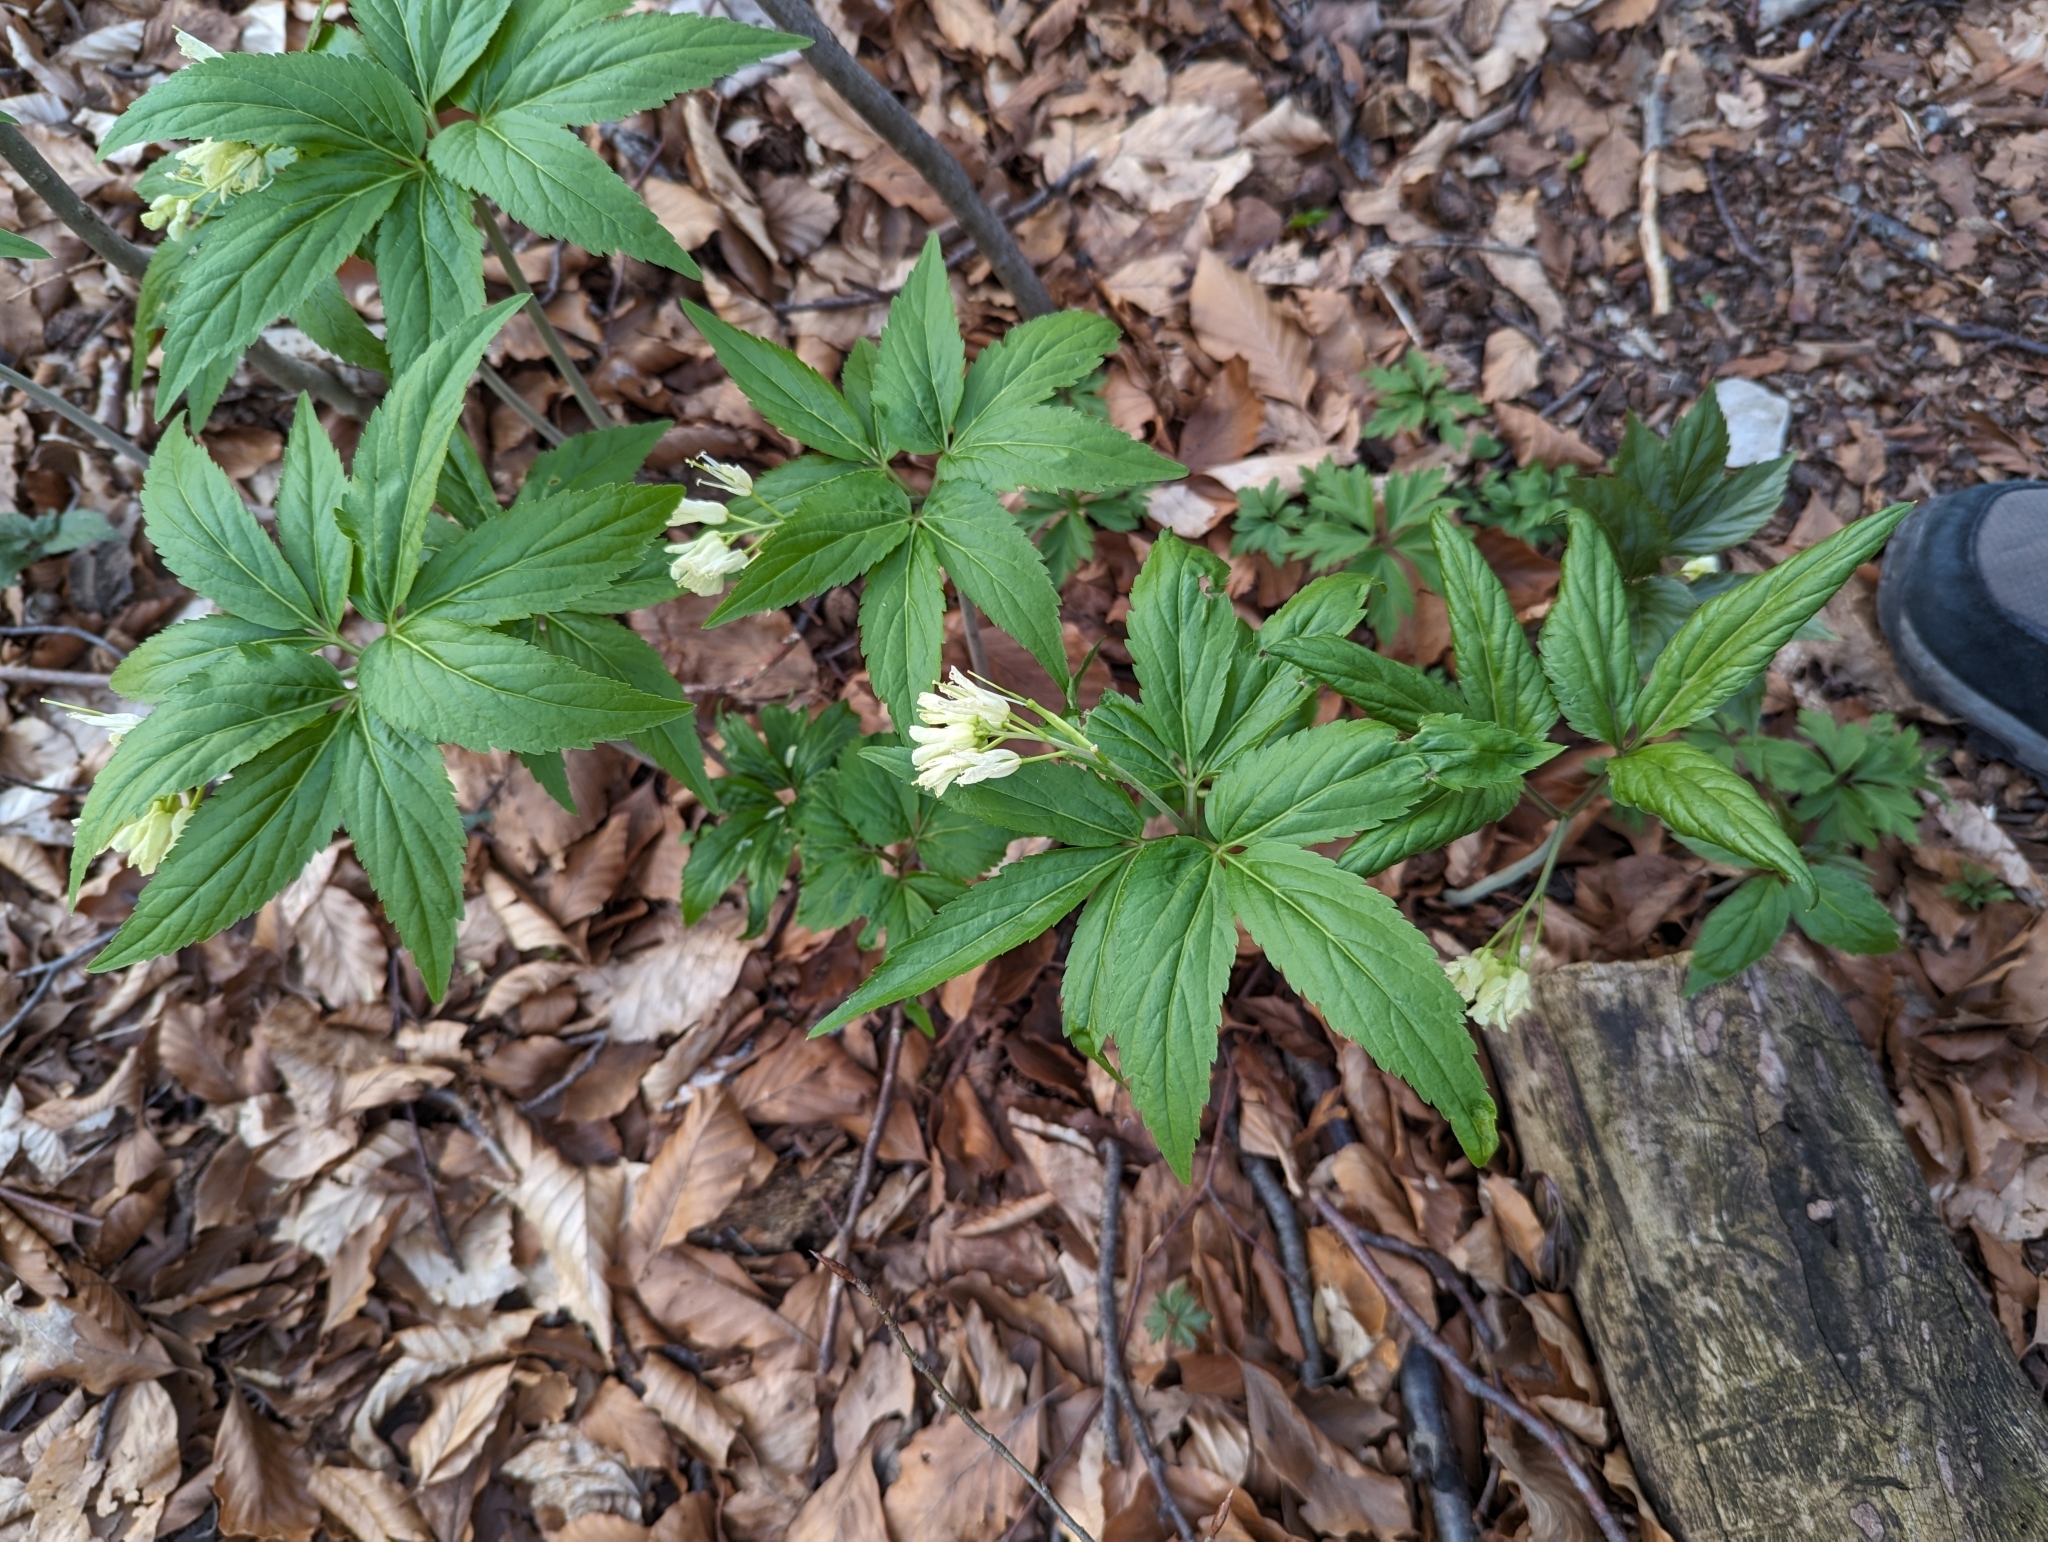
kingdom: Plantae
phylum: Tracheophyta
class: Magnoliopsida
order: Brassicales
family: Brassicaceae
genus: Cardamine
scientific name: Cardamine enneaphyllos
